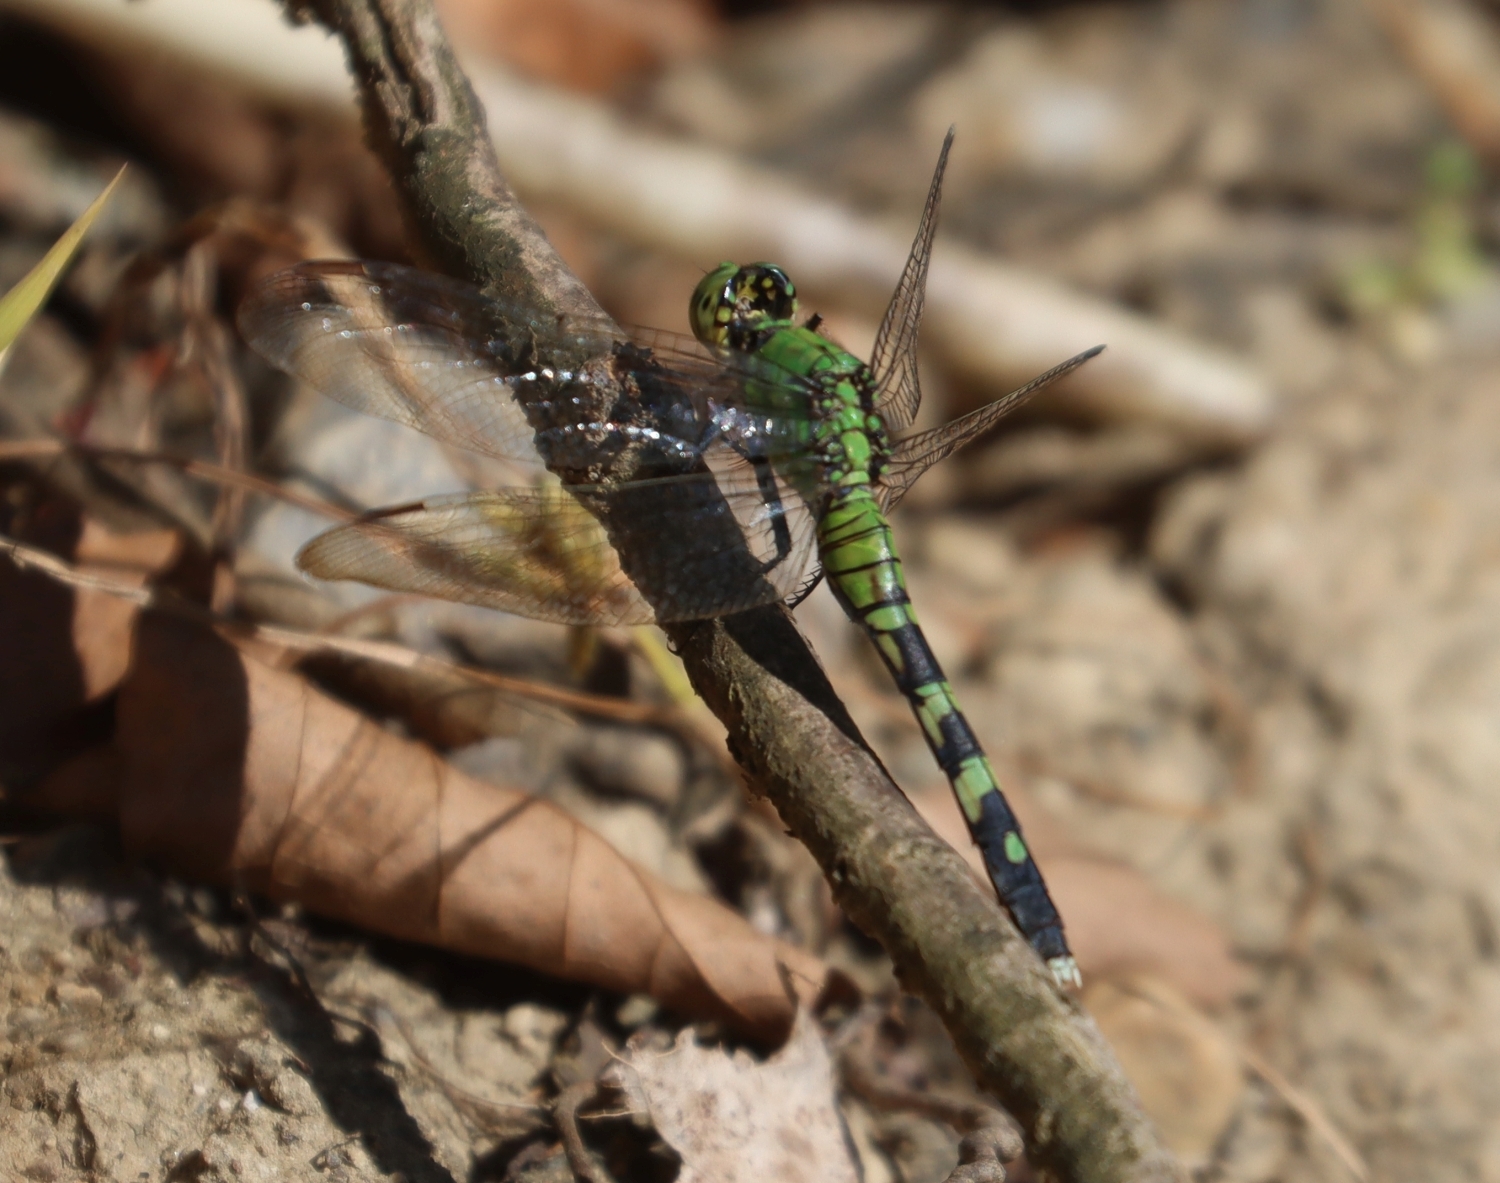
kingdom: Animalia
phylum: Arthropoda
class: Insecta
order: Odonata
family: Libellulidae
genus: Erythemis
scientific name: Erythemis simplicicollis
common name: Eastern pondhawk
